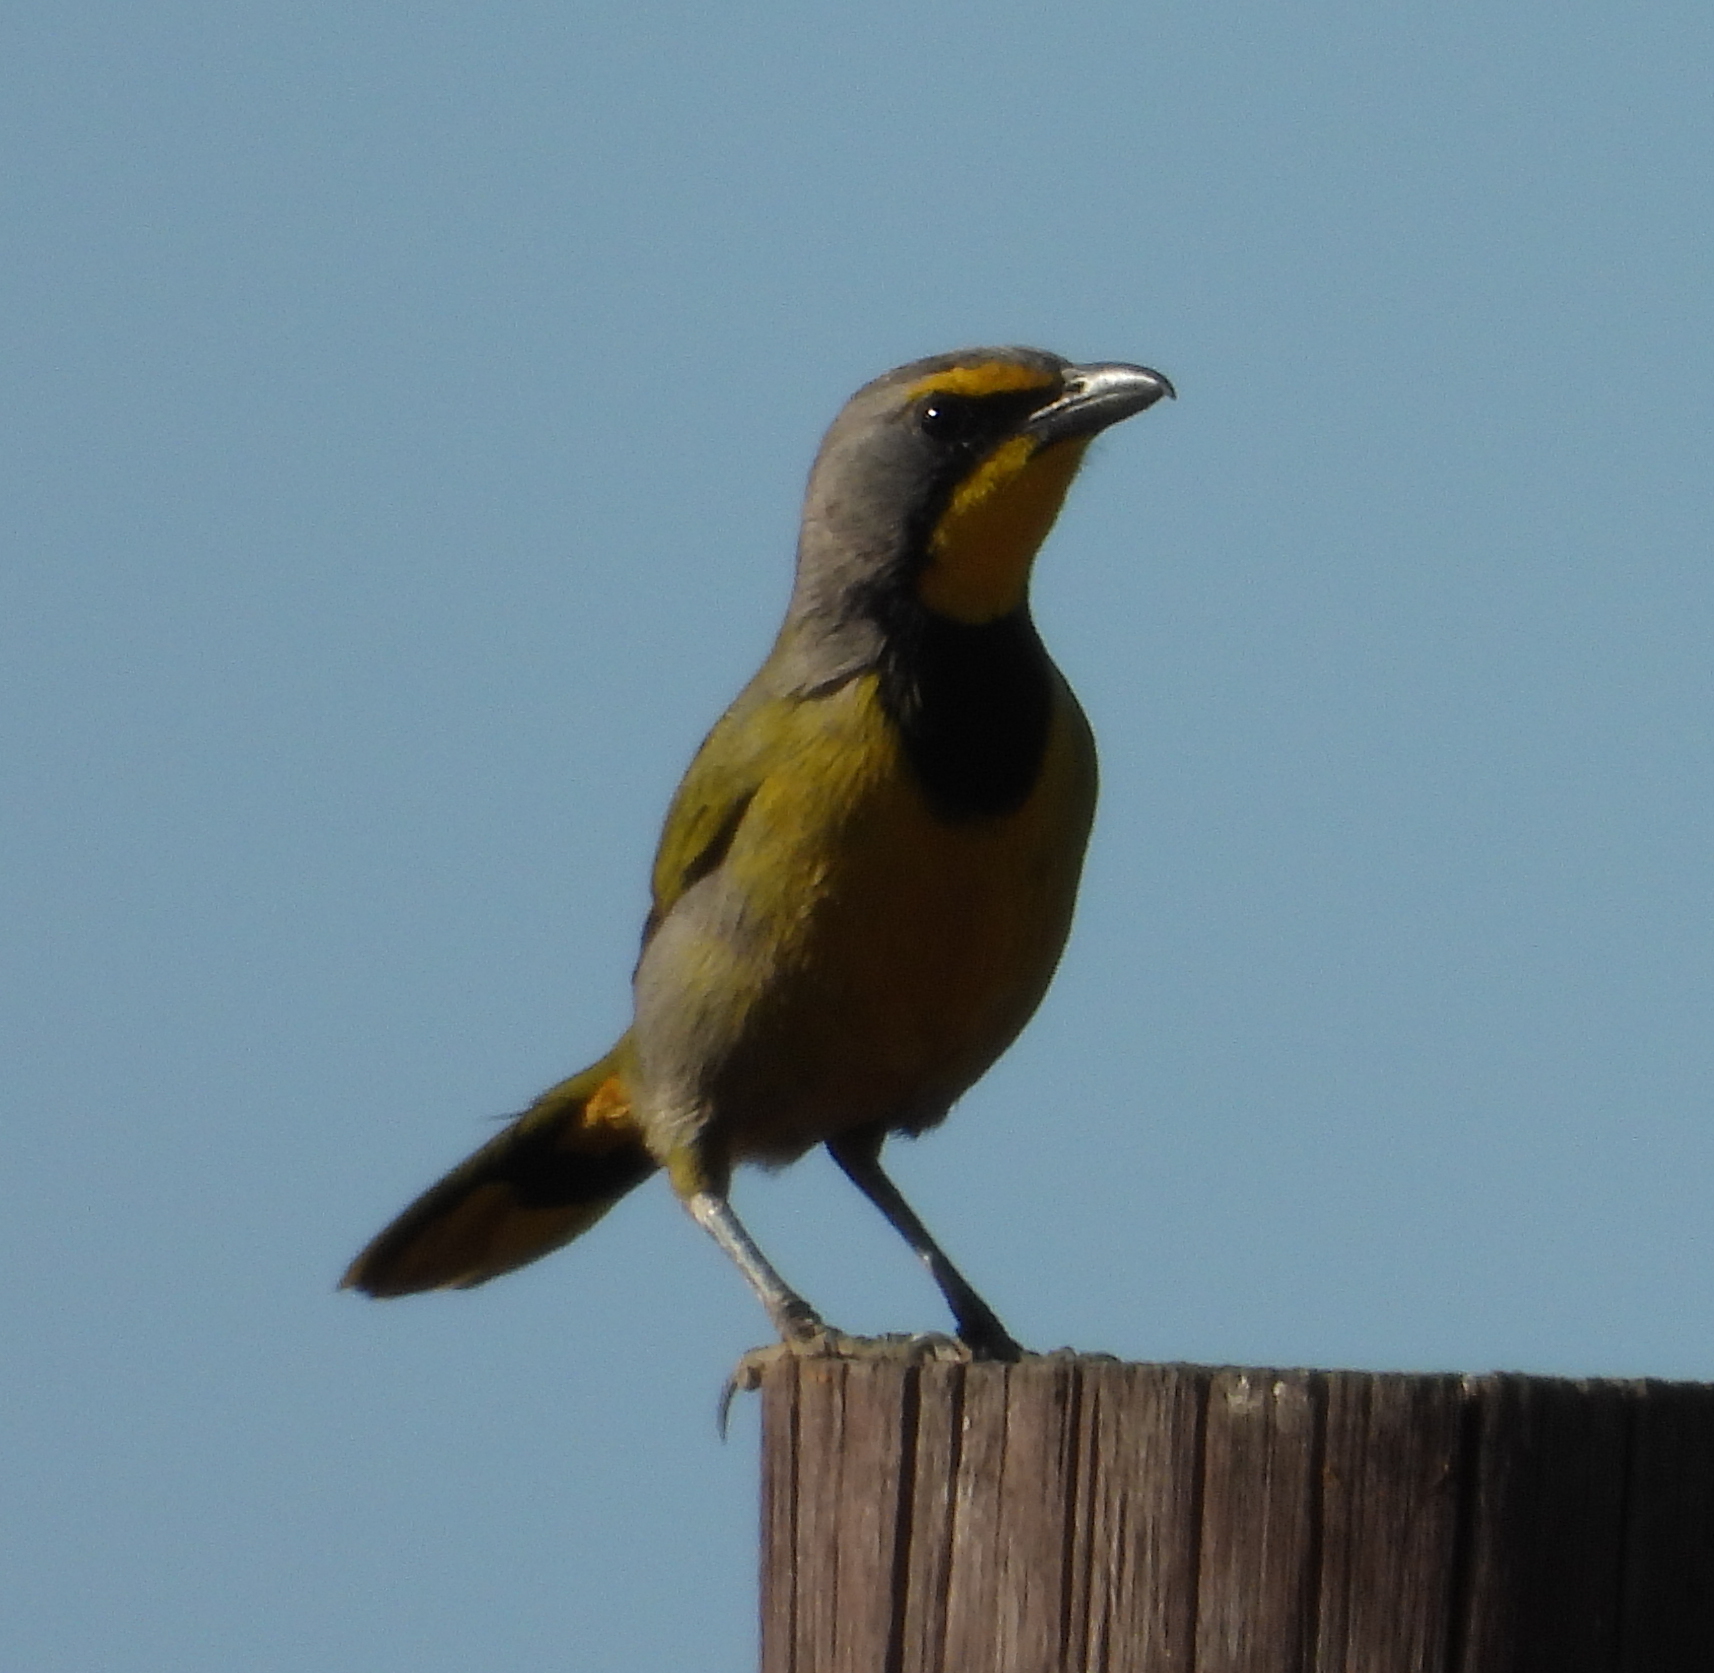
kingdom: Animalia
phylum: Chordata
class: Aves
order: Passeriformes
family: Malaconotidae
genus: Telophorus
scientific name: Telophorus zeylonus
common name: Bokmakierie
